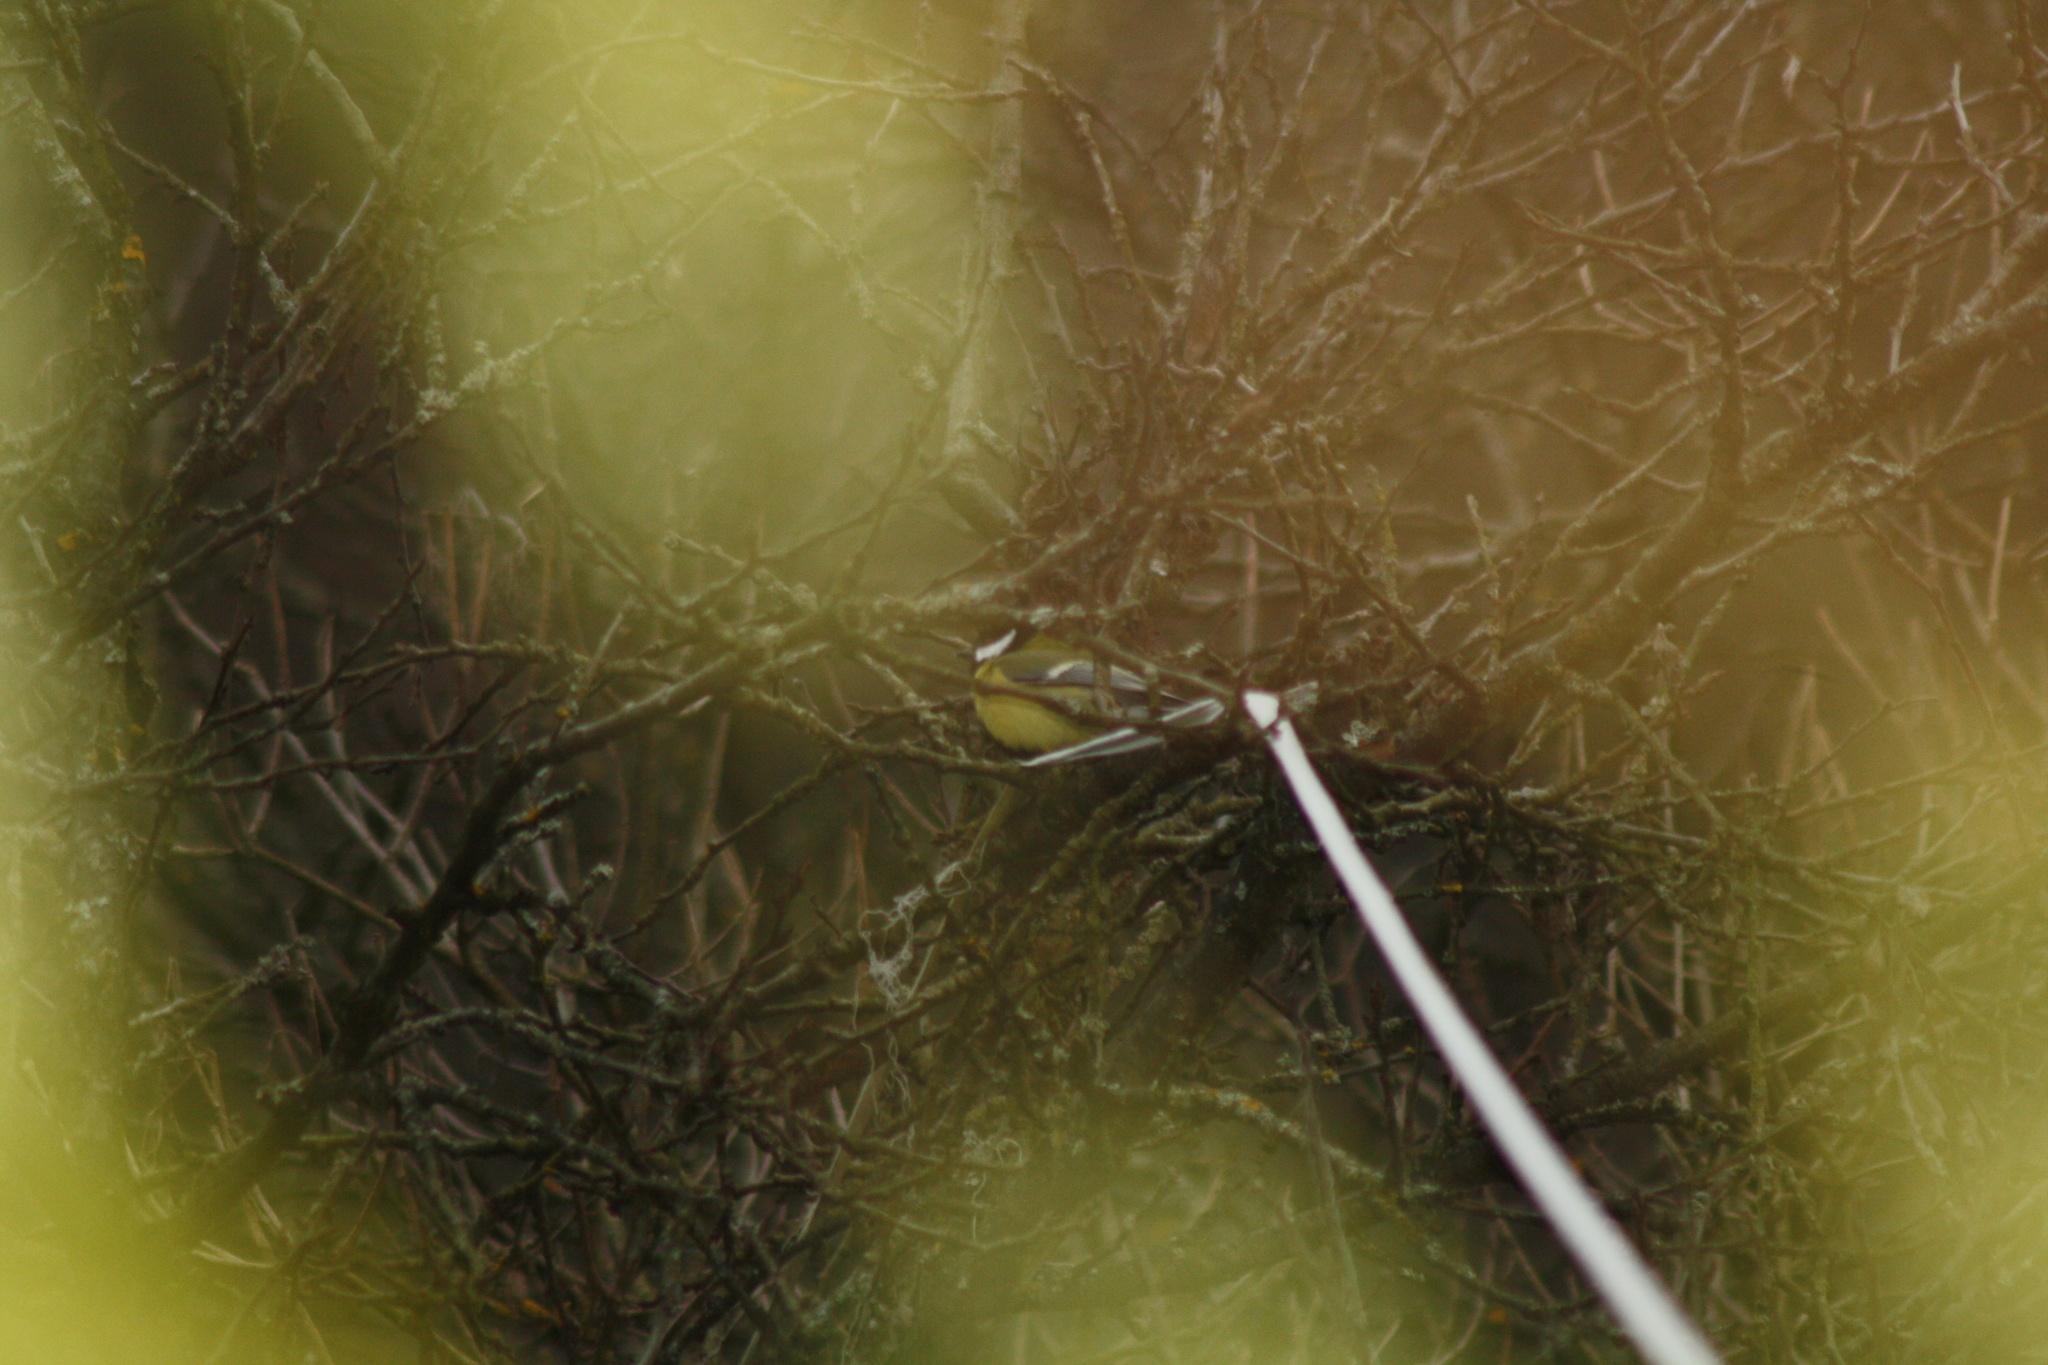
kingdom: Animalia
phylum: Chordata
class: Aves
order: Passeriformes
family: Paridae
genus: Parus
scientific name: Parus major
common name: Great tit
